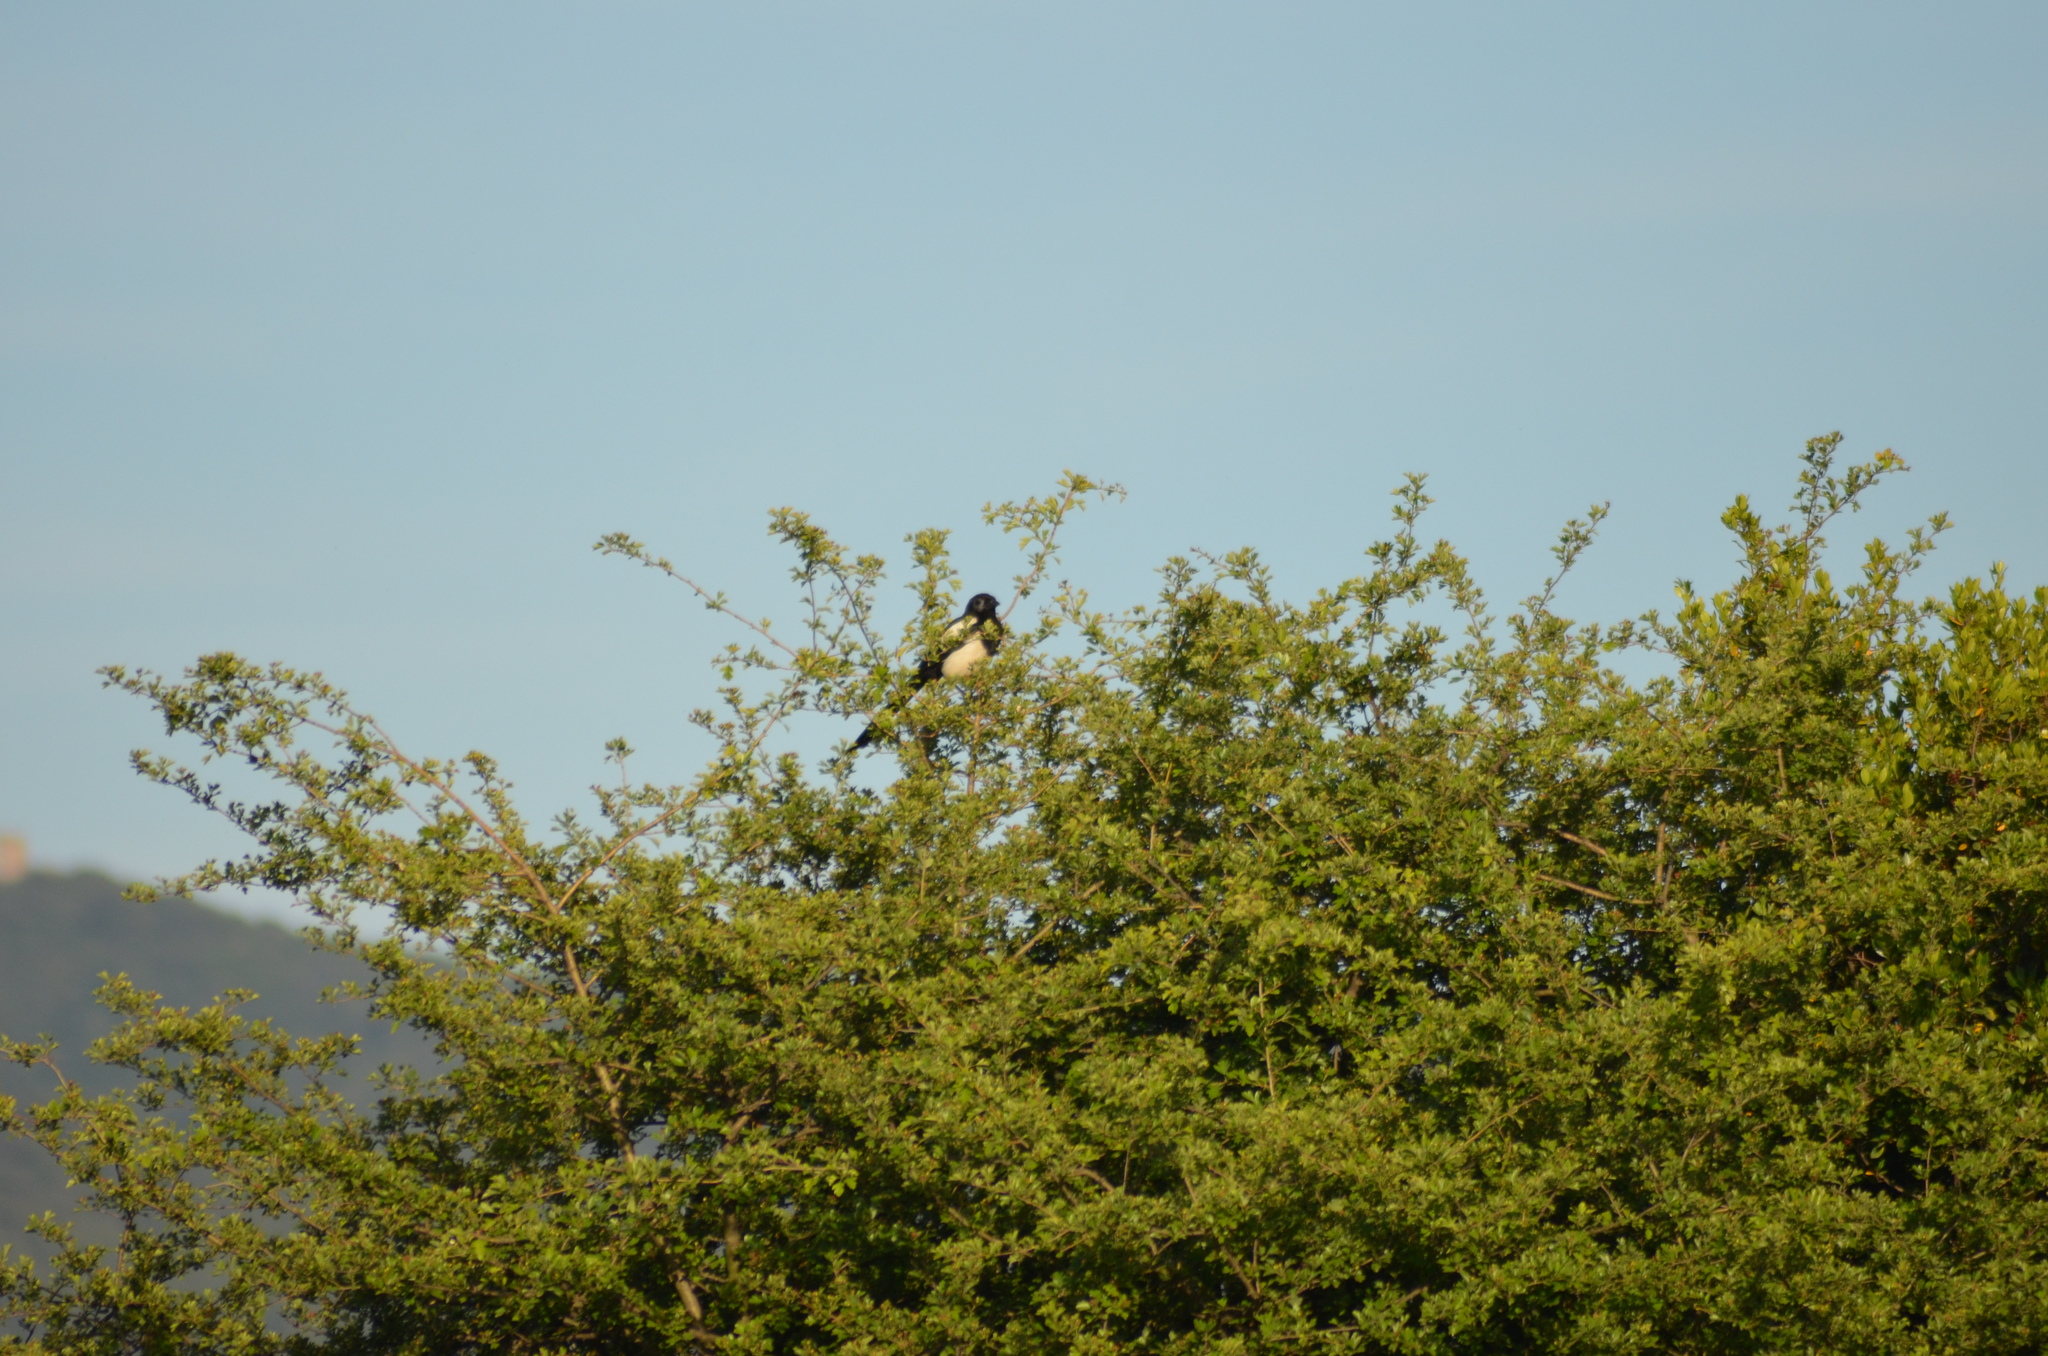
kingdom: Animalia
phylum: Chordata
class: Aves
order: Passeriformes
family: Corvidae
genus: Pica
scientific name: Pica pica
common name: Eurasian magpie
